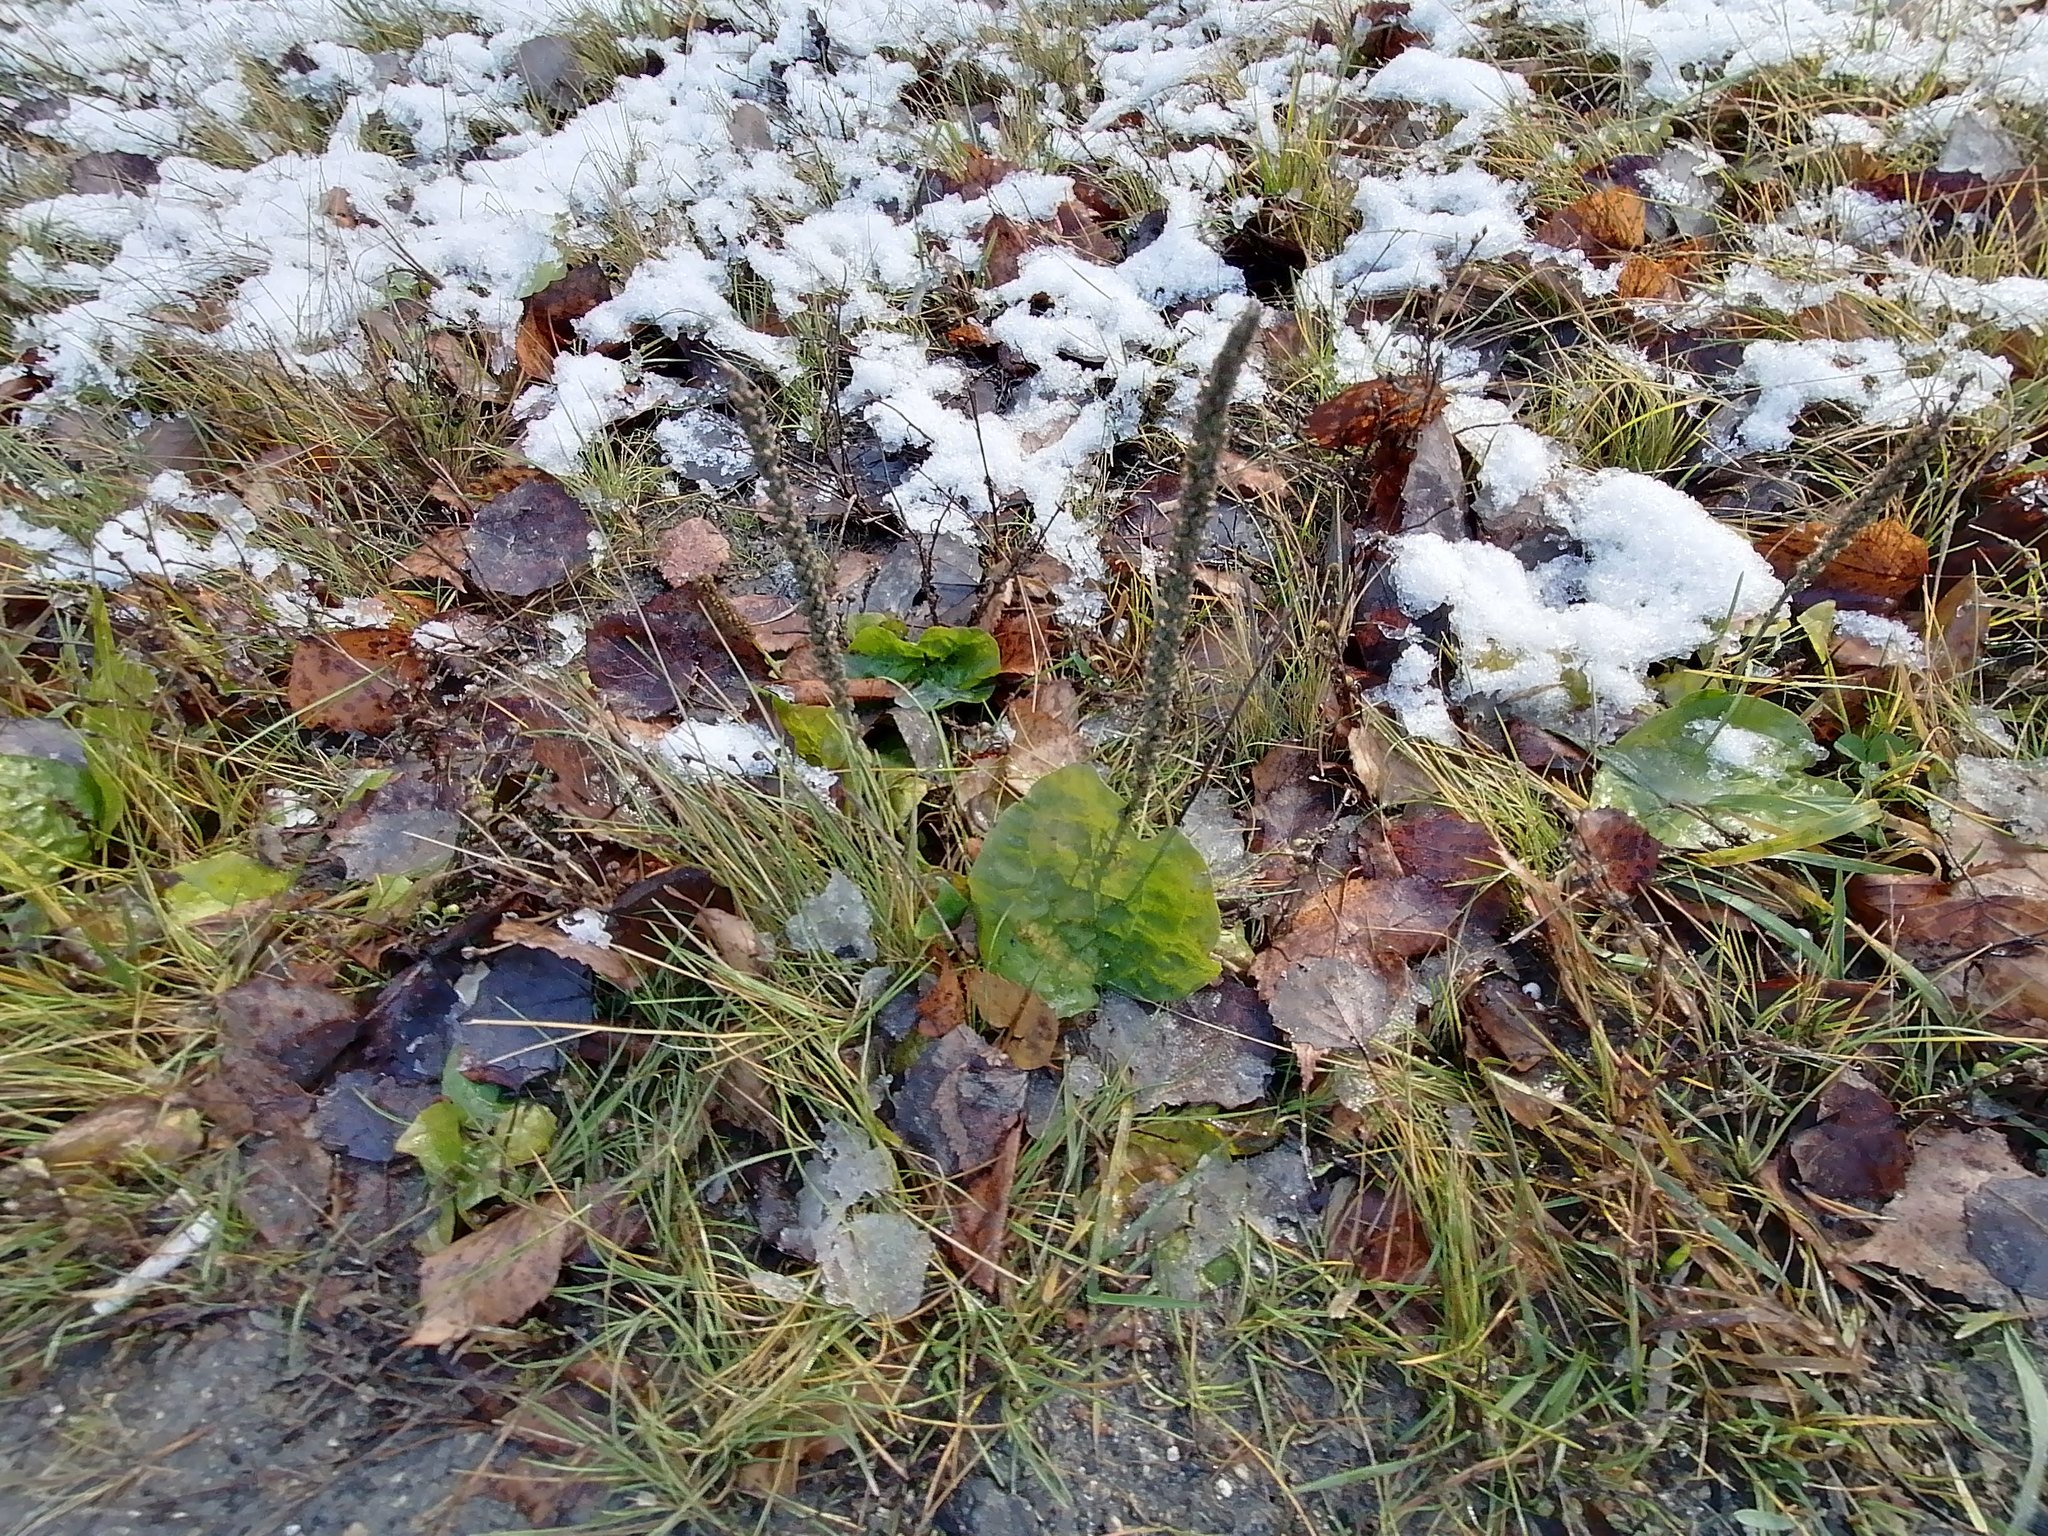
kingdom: Plantae
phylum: Tracheophyta
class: Magnoliopsida
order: Lamiales
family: Plantaginaceae
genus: Plantago
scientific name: Plantago major
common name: Common plantain
